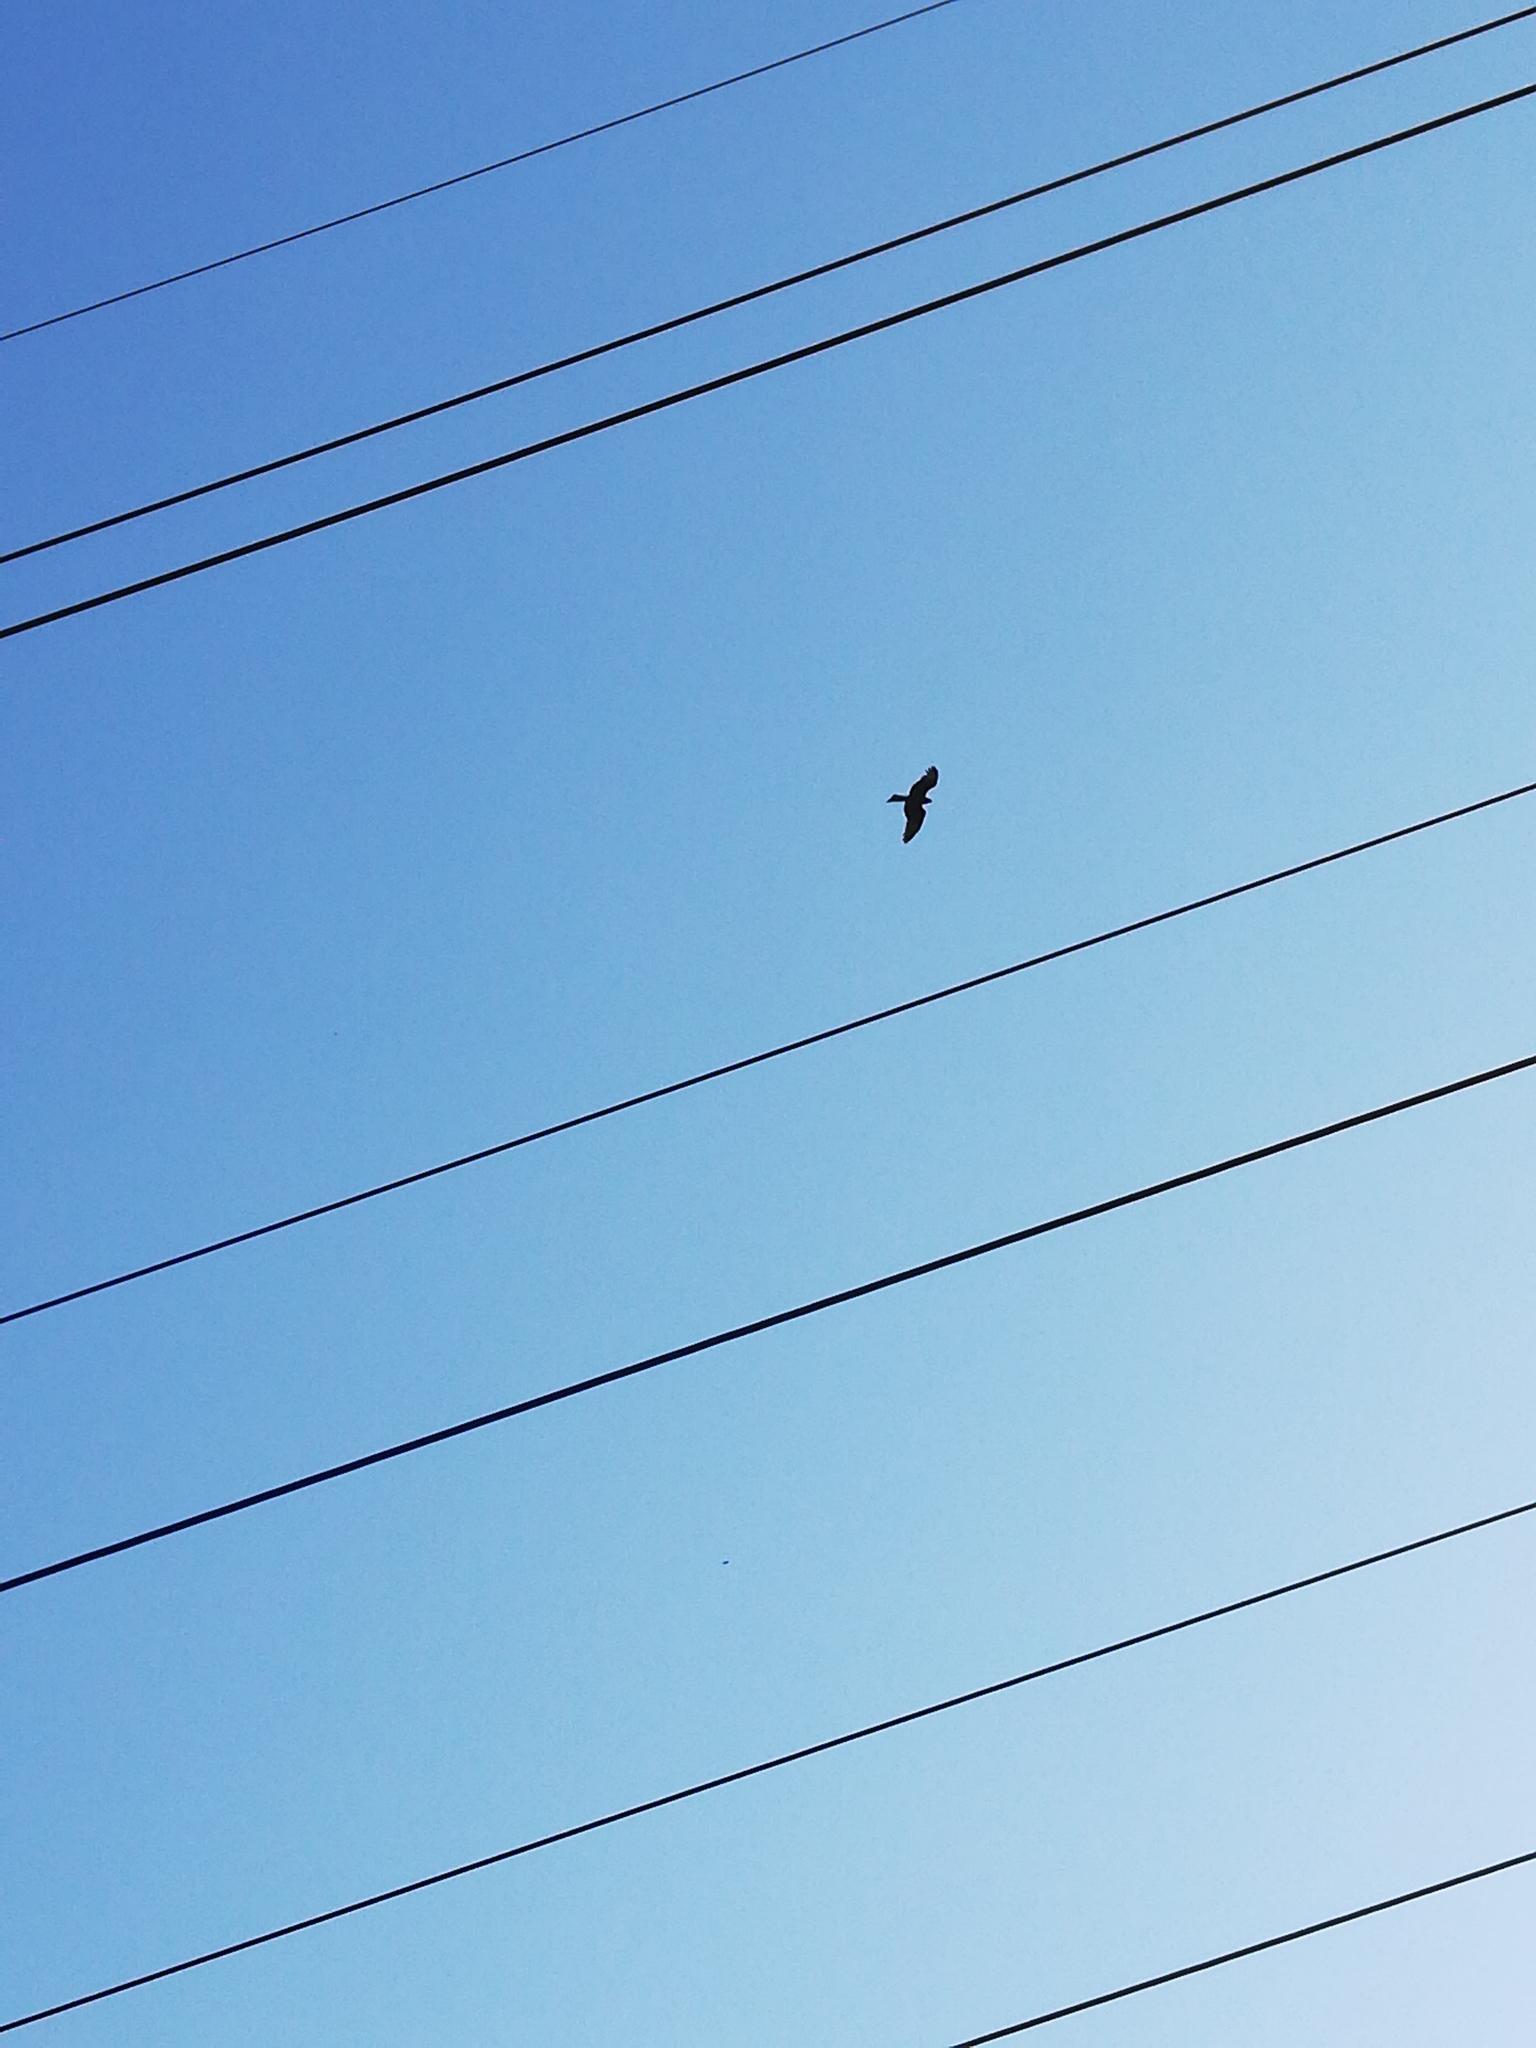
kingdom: Animalia
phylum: Chordata
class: Aves
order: Accipitriformes
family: Accipitridae
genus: Milvus
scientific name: Milvus migrans
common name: Black kite
